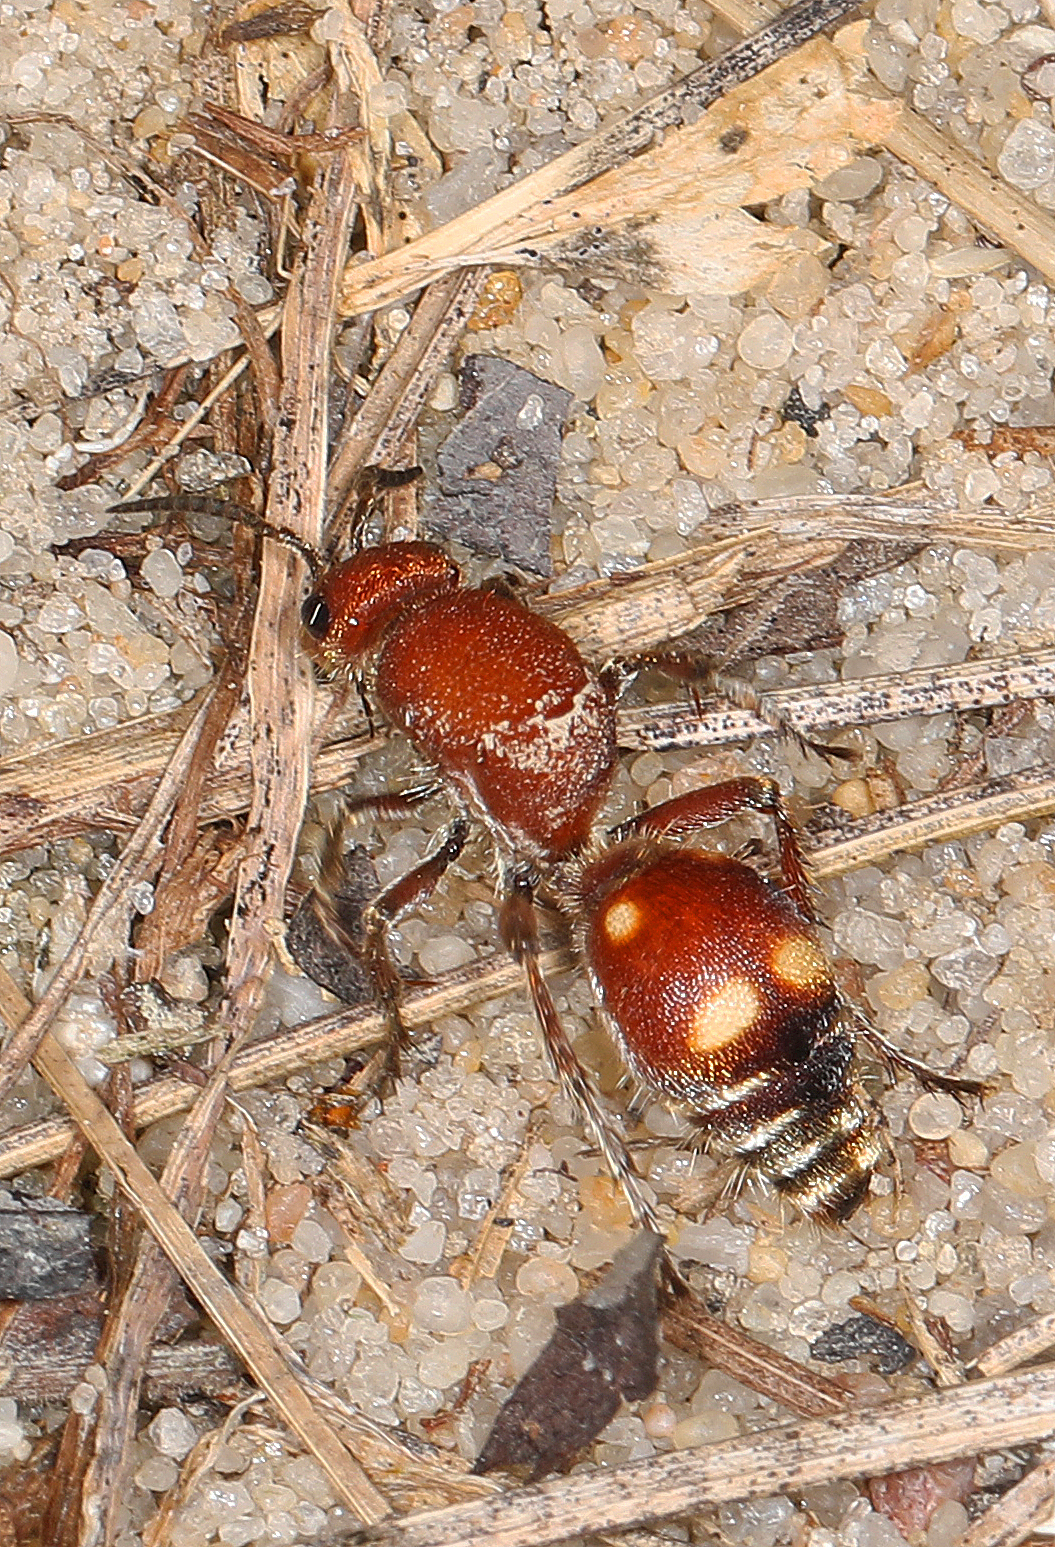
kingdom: Animalia
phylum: Arthropoda
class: Insecta
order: Hymenoptera
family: Mutillidae
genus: Dasymutilla
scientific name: Dasymutilla
